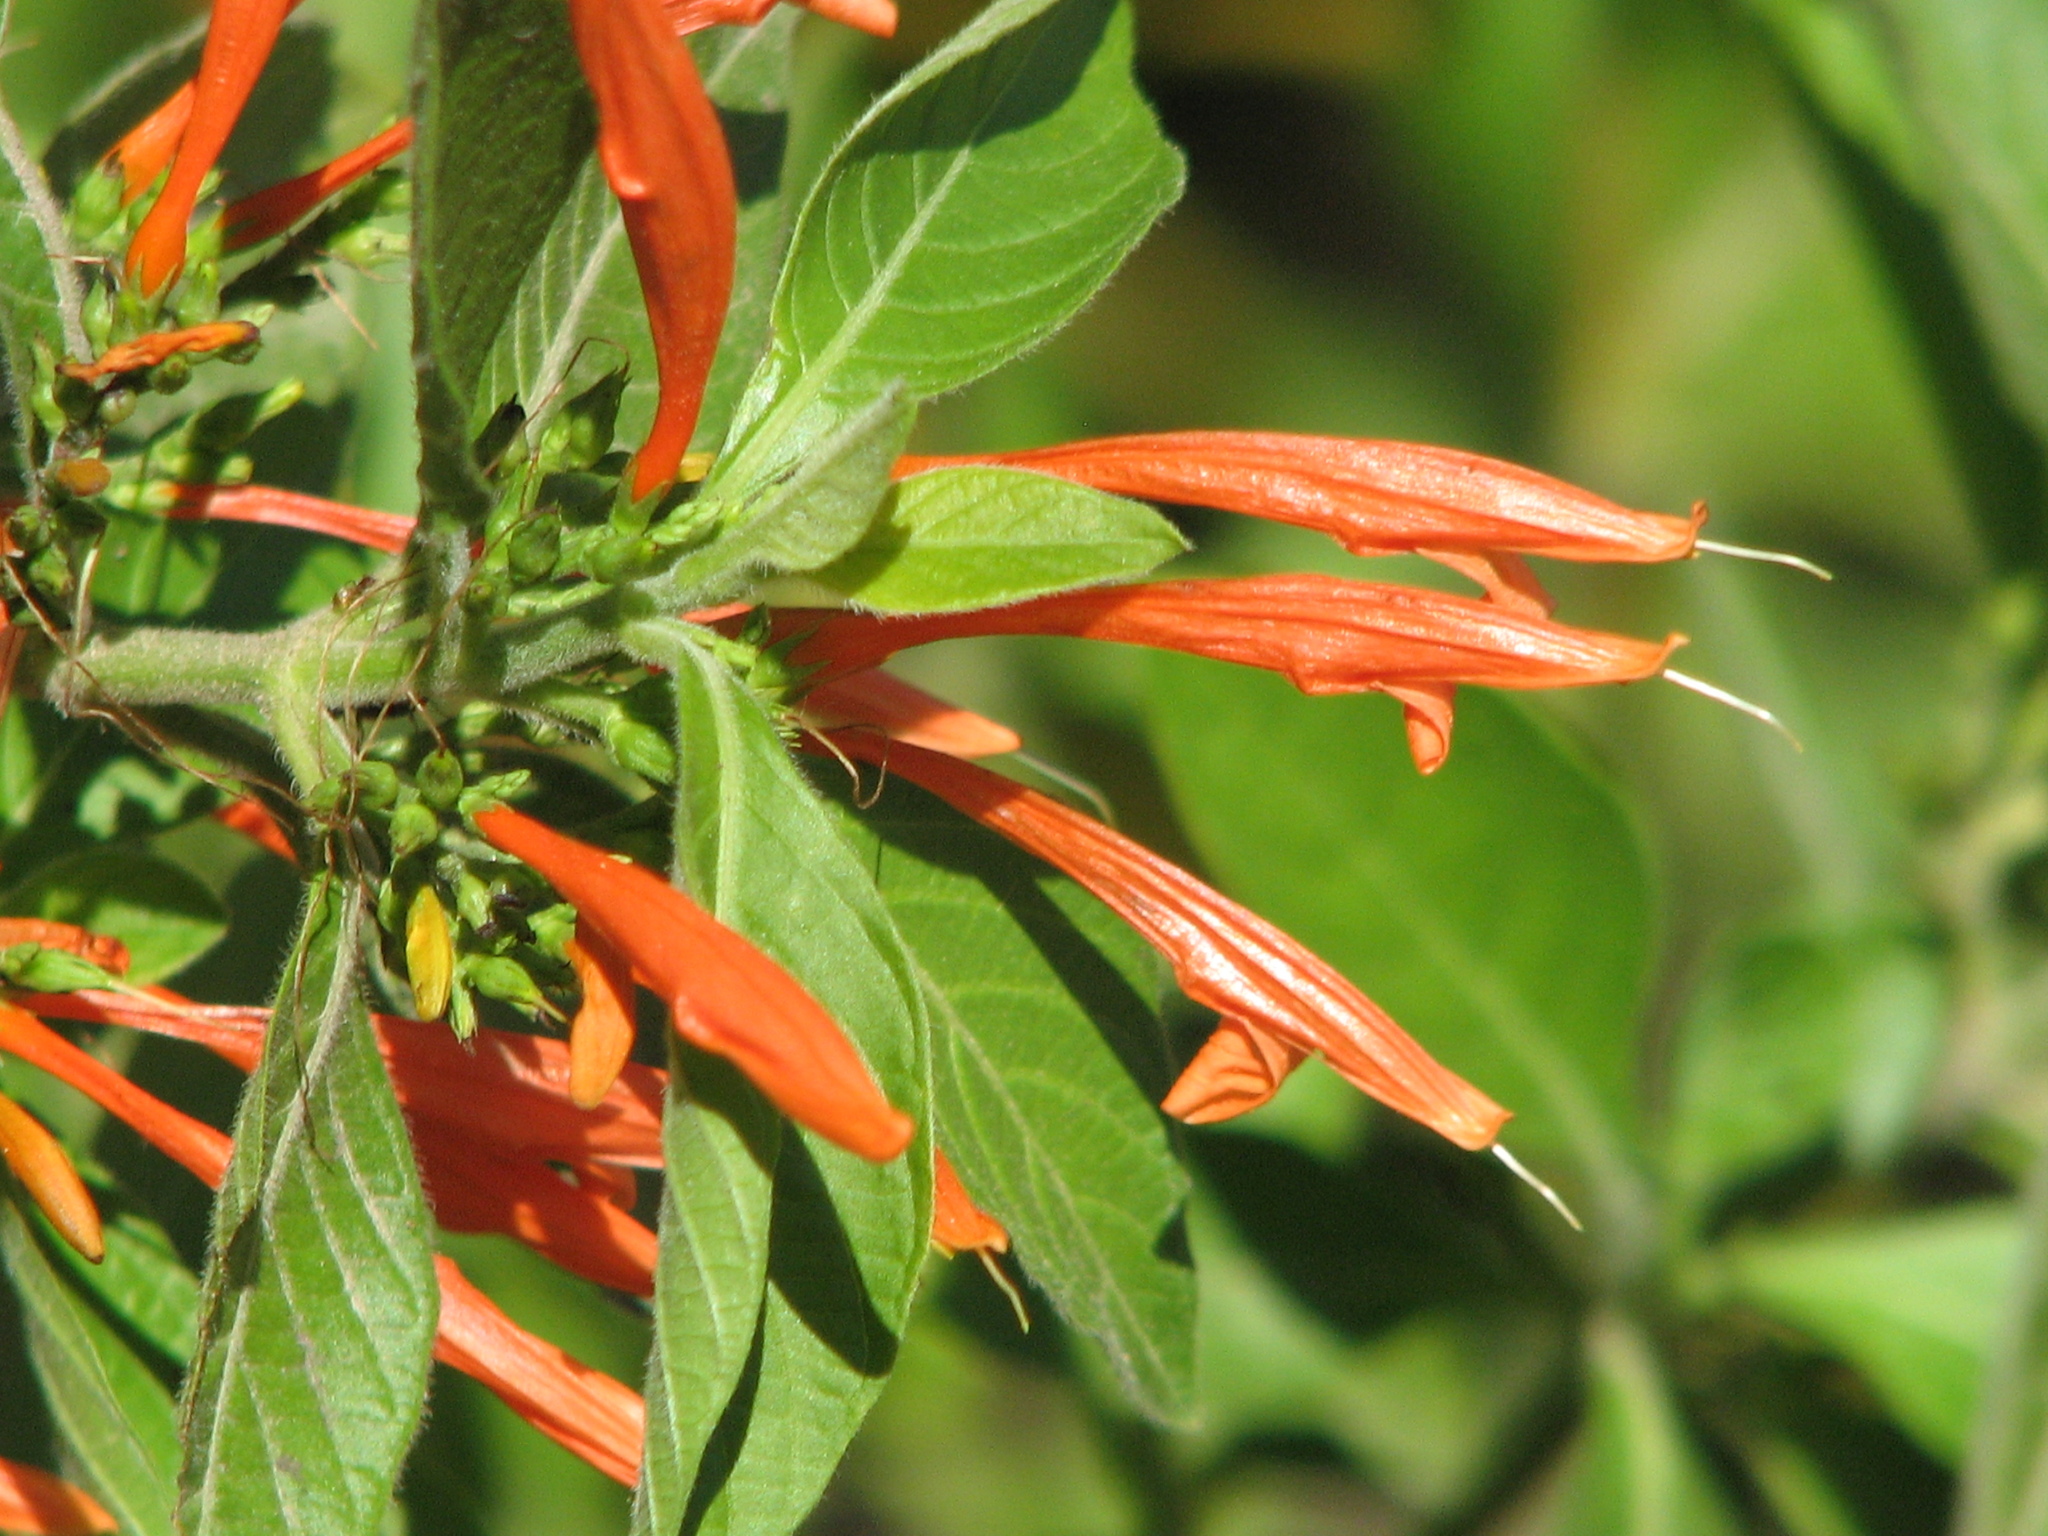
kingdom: Plantae
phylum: Tracheophyta
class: Magnoliopsida
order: Lamiales
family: Acanthaceae
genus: Justicia
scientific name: Justicia spicigera
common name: Mohintli
